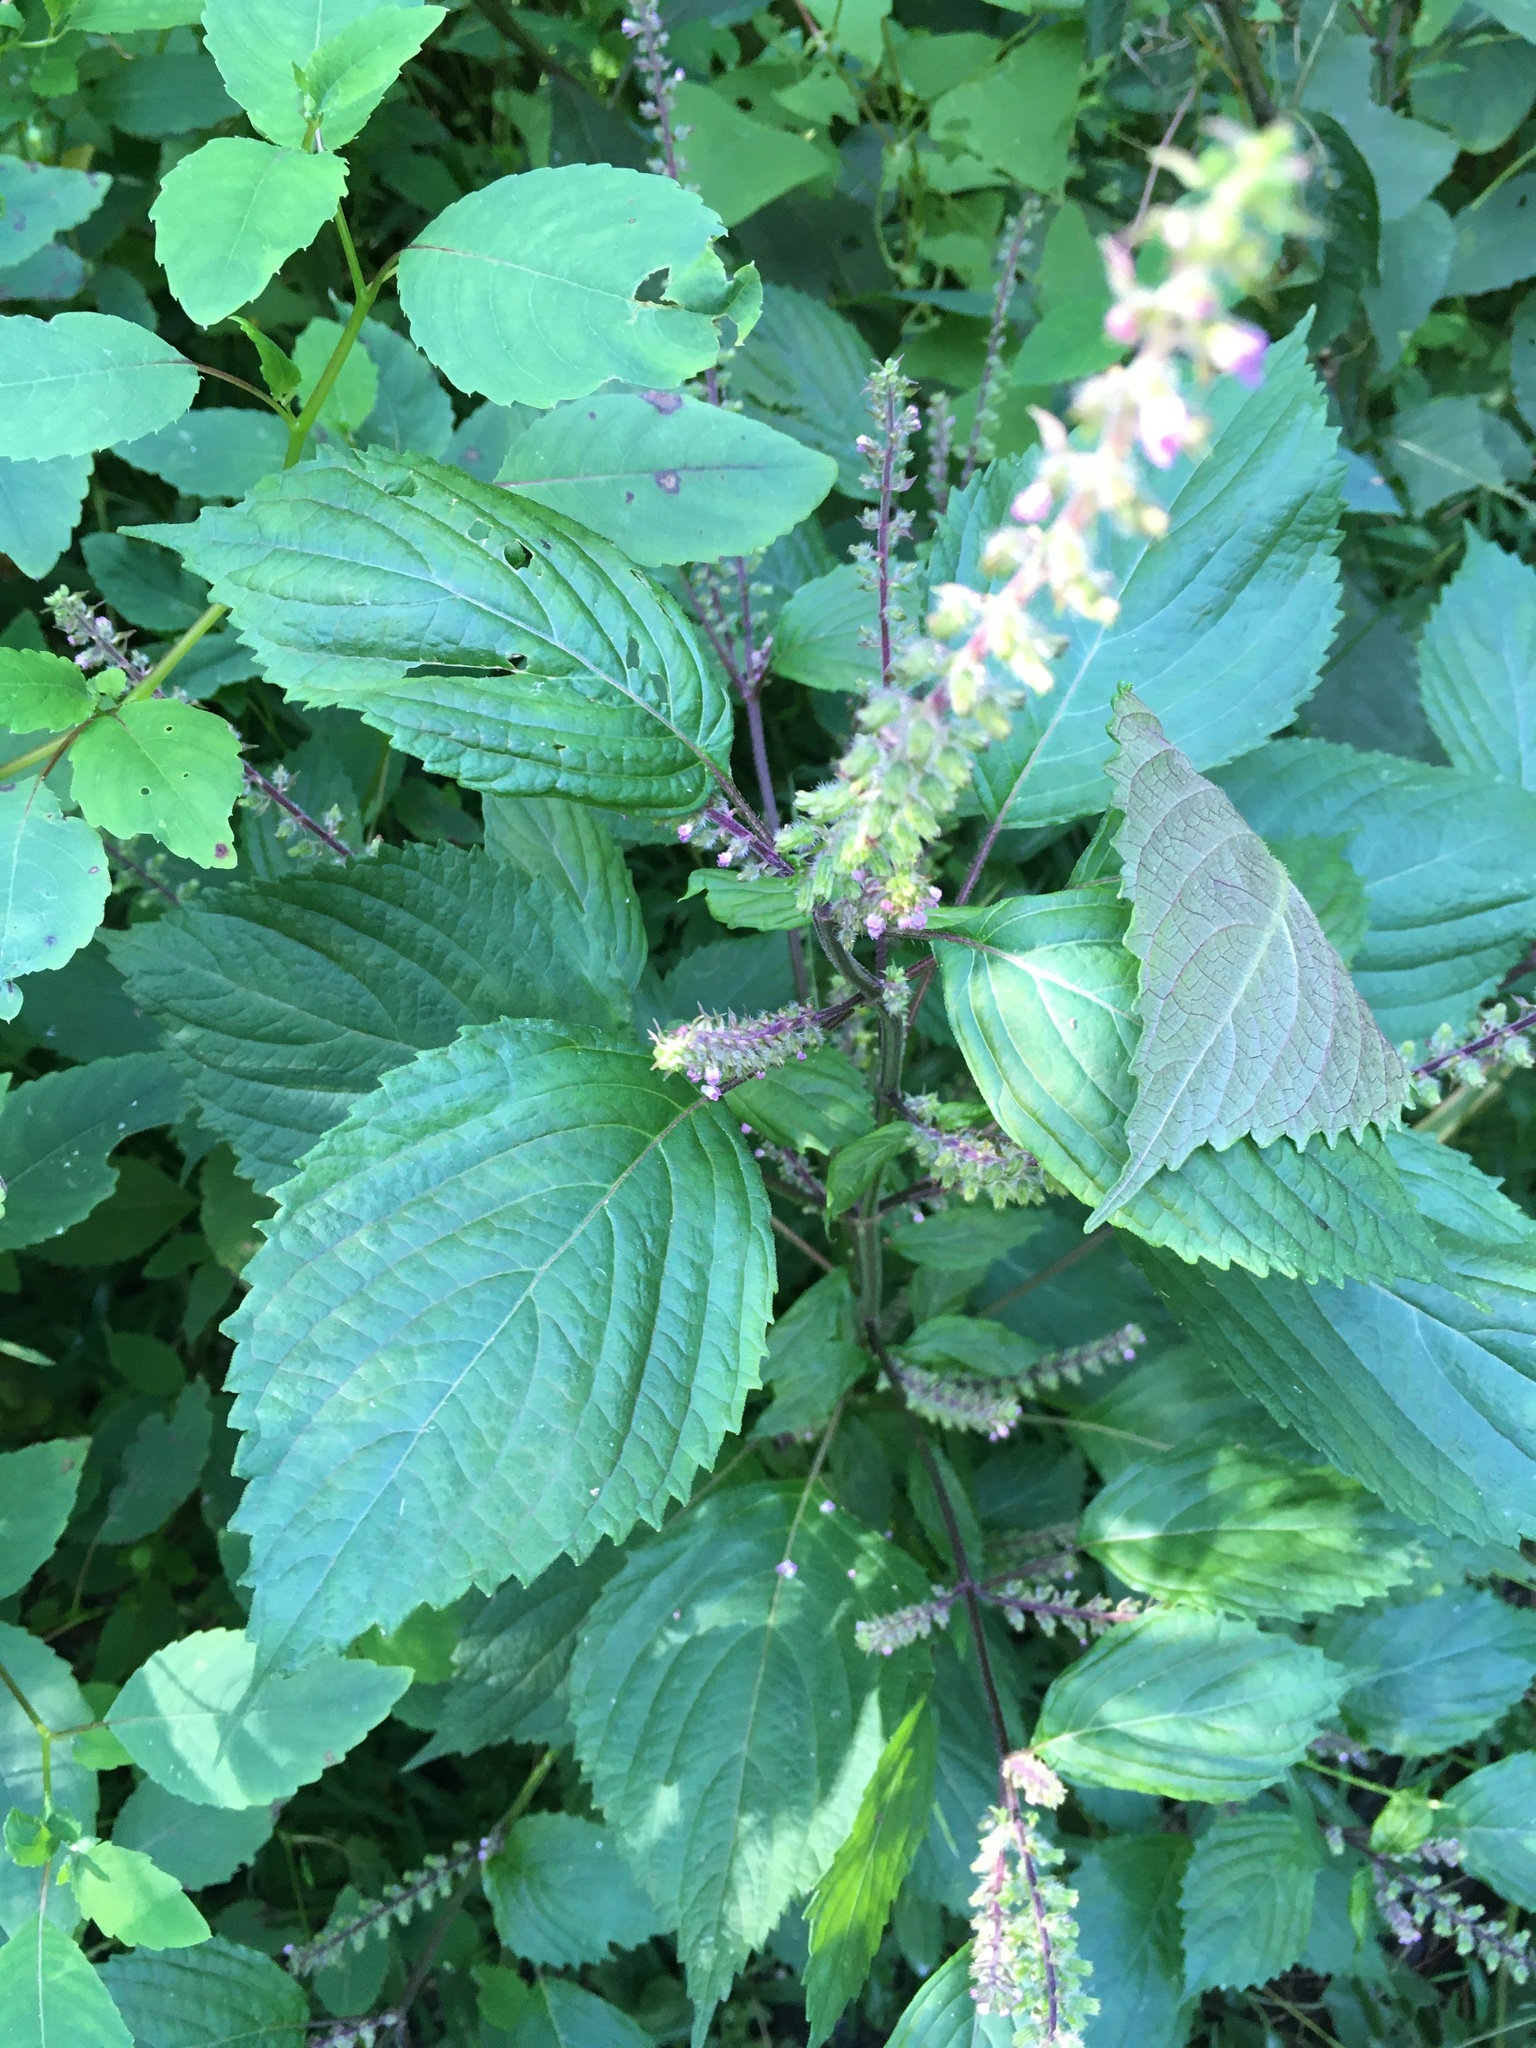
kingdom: Plantae
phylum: Tracheophyta
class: Magnoliopsida
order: Lamiales
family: Lamiaceae
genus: Perilla
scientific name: Perilla frutescens
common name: Perilla
